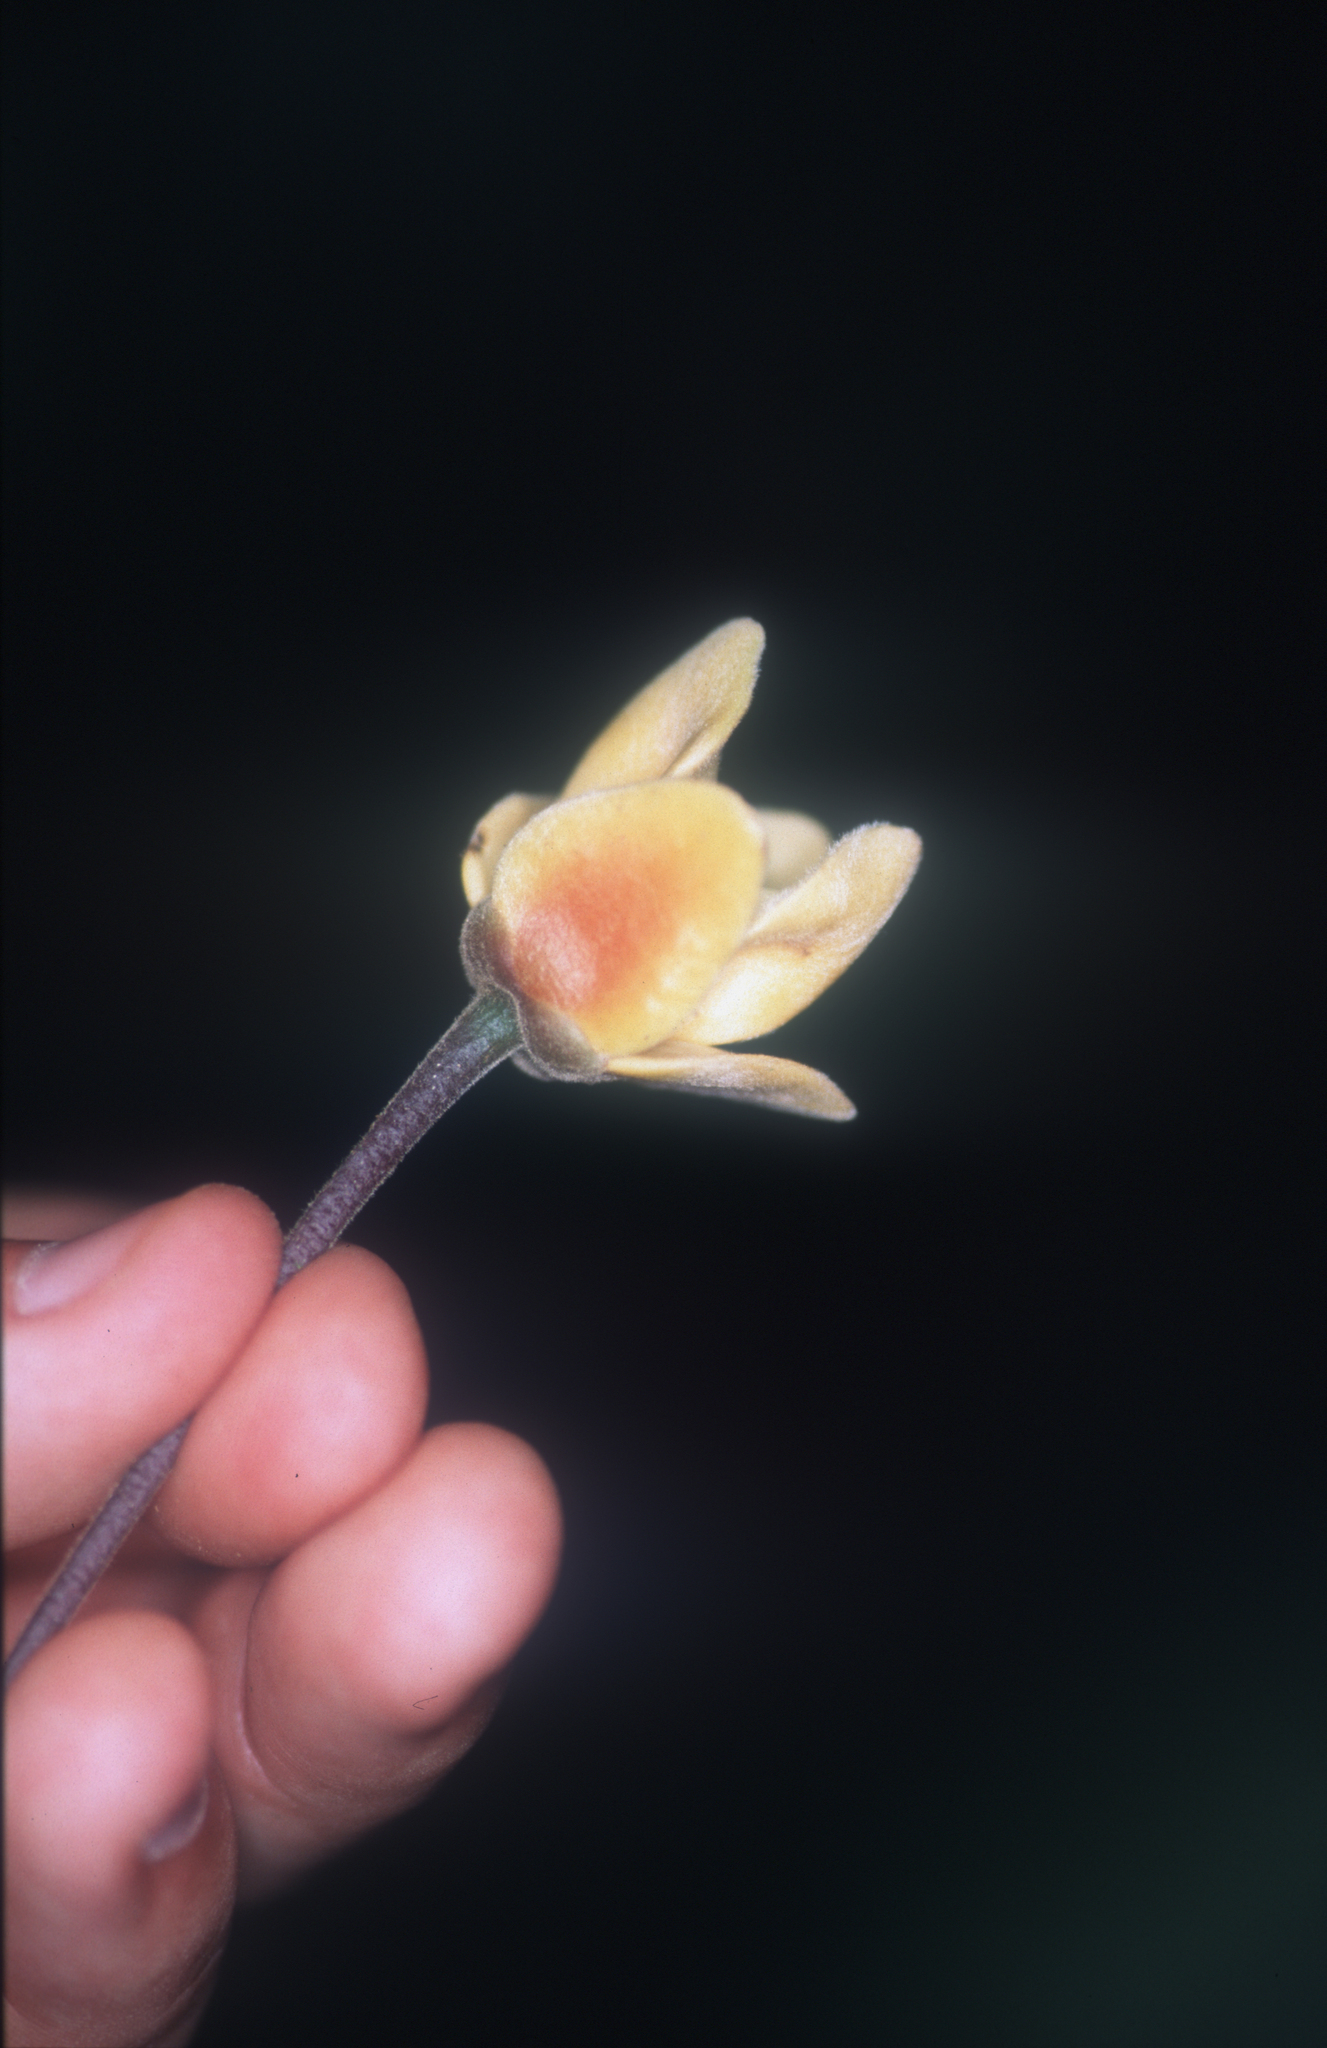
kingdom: Plantae
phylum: Tracheophyta
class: Magnoliopsida
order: Magnoliales
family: Annonaceae
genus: Cremastosperma
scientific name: Cremastosperma bullatum
